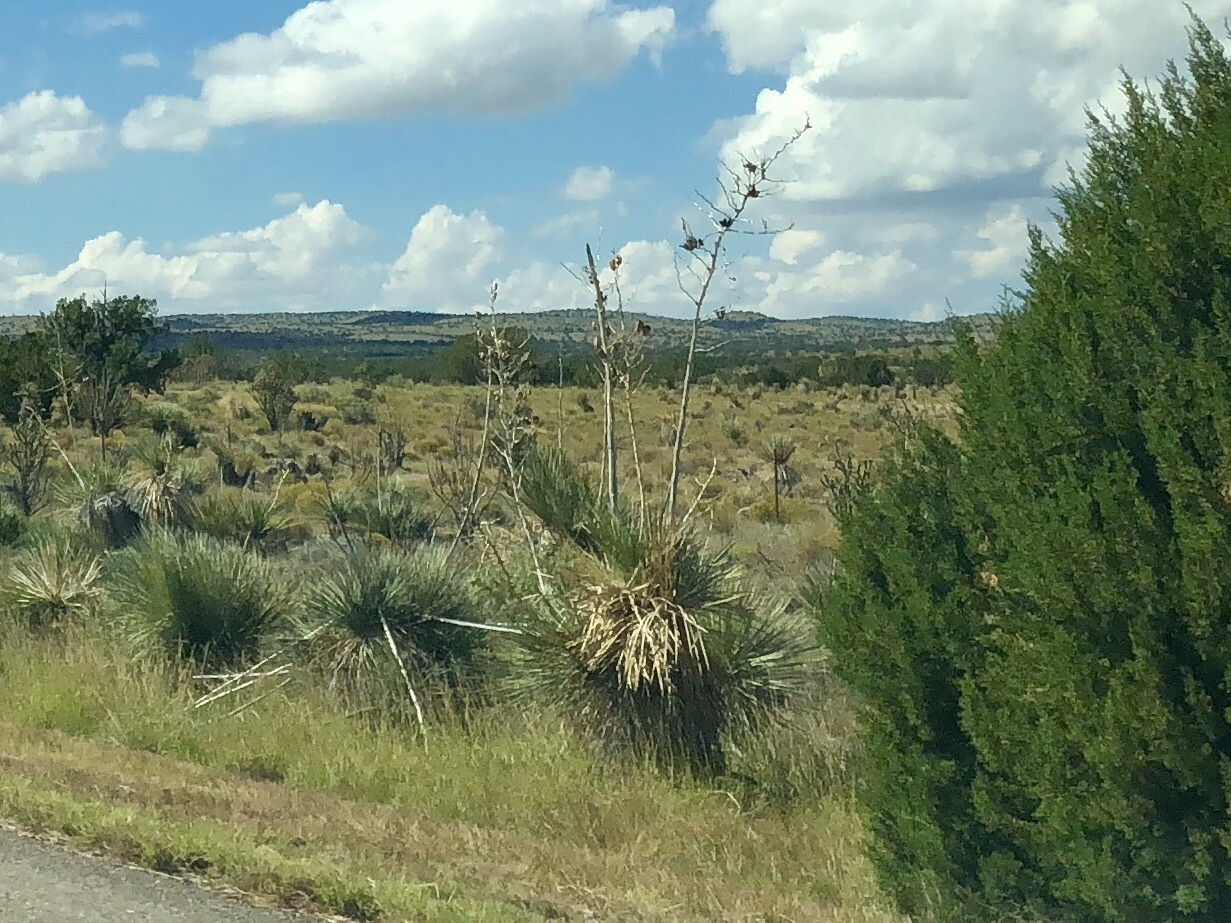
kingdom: Plantae
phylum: Tracheophyta
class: Liliopsida
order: Asparagales
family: Asparagaceae
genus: Yucca
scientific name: Yucca elata
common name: Palmella
